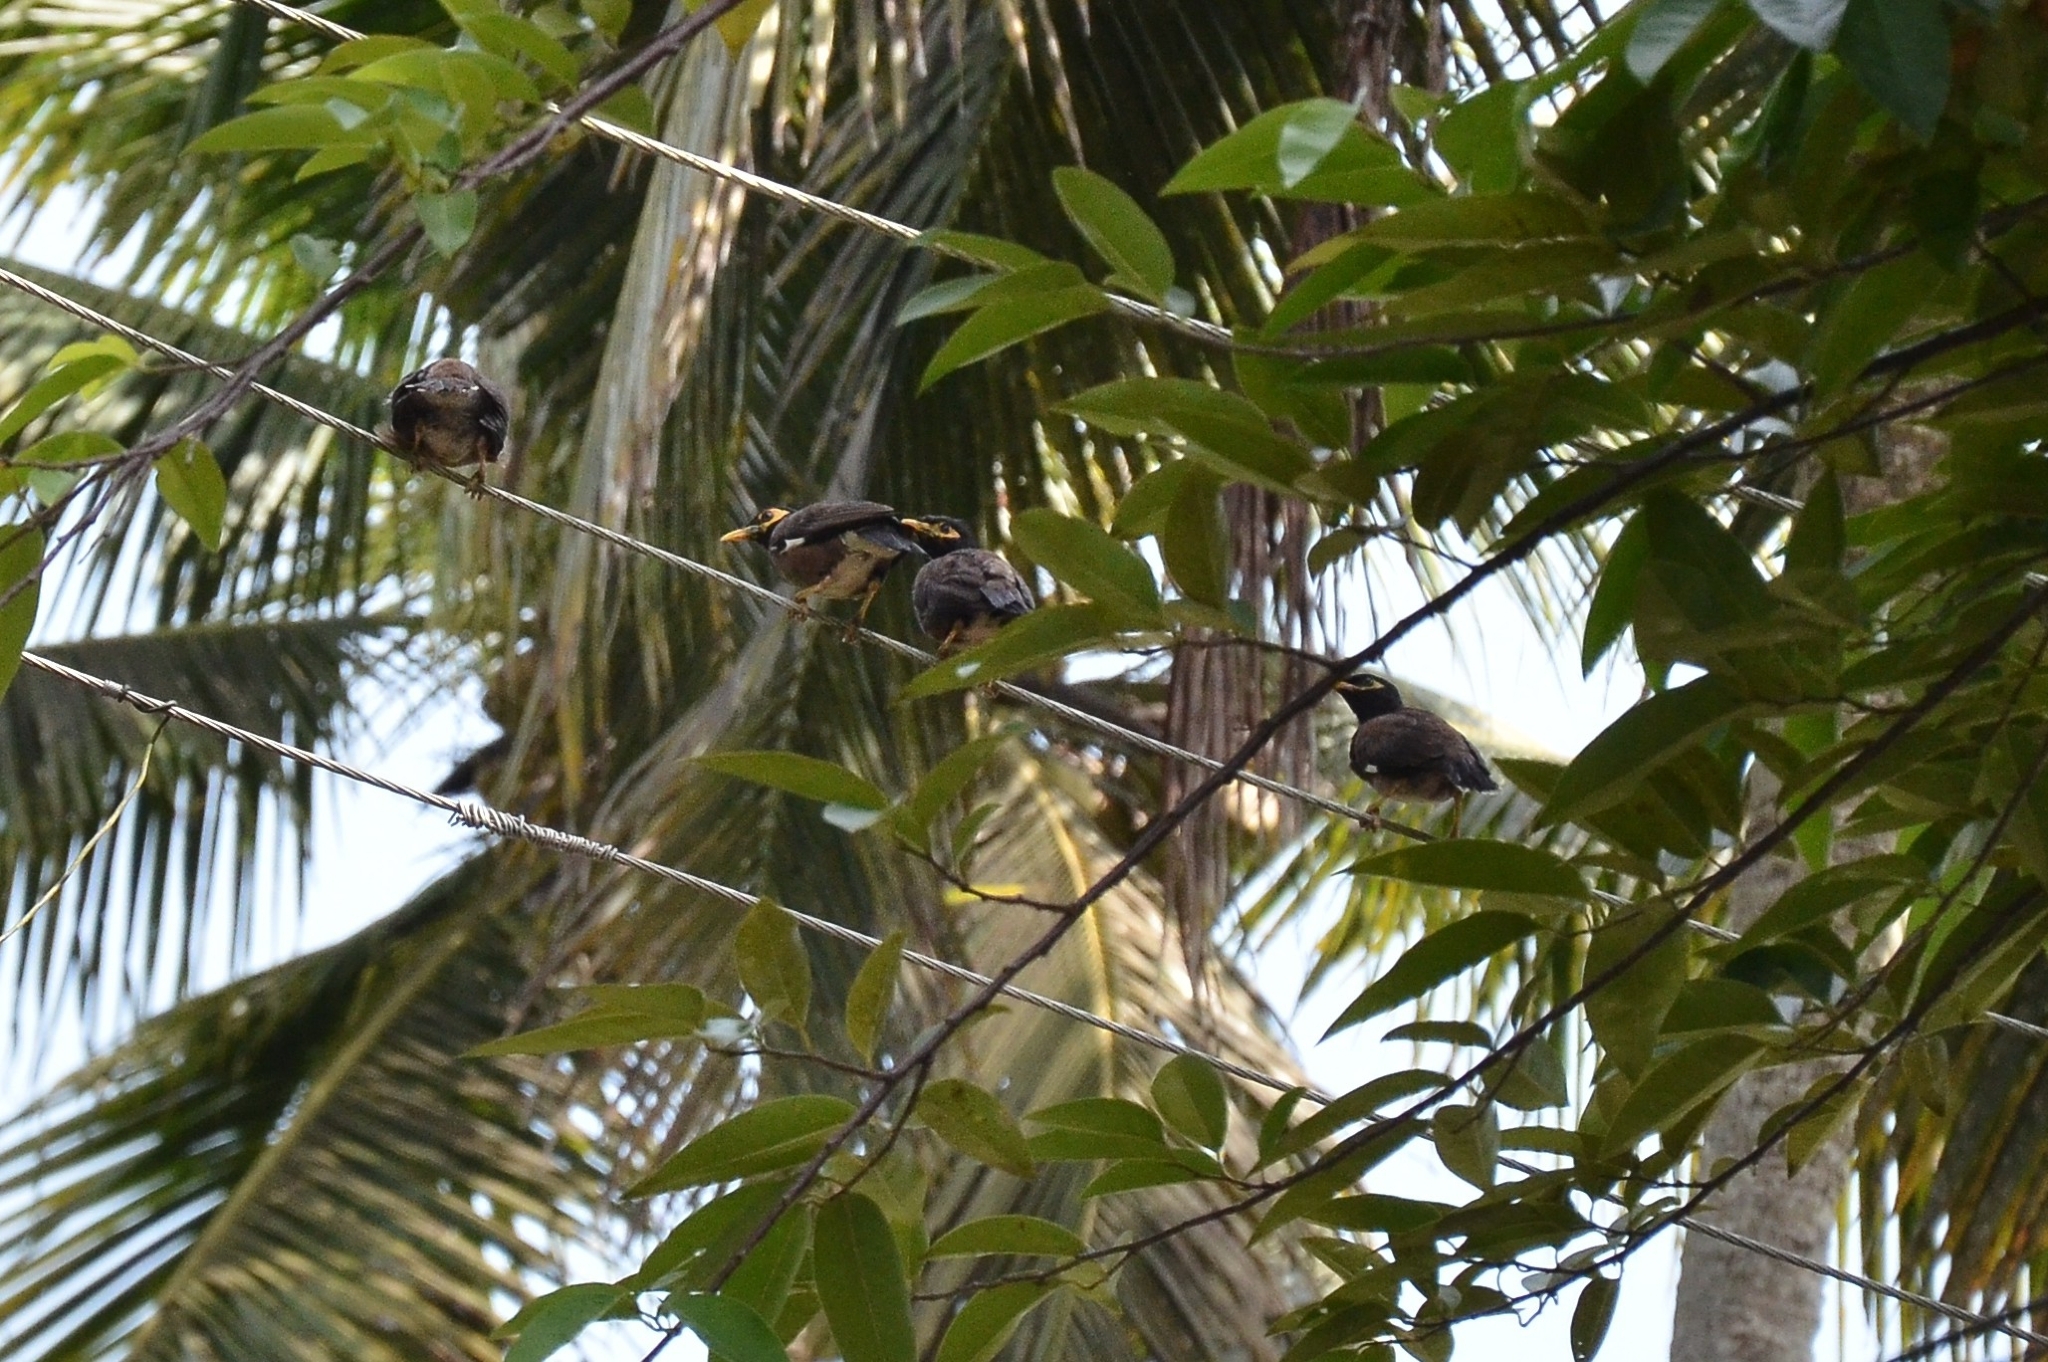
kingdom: Animalia
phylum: Chordata
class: Aves
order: Passeriformes
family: Sturnidae
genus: Acridotheres
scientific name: Acridotheres tristis
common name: Common myna
